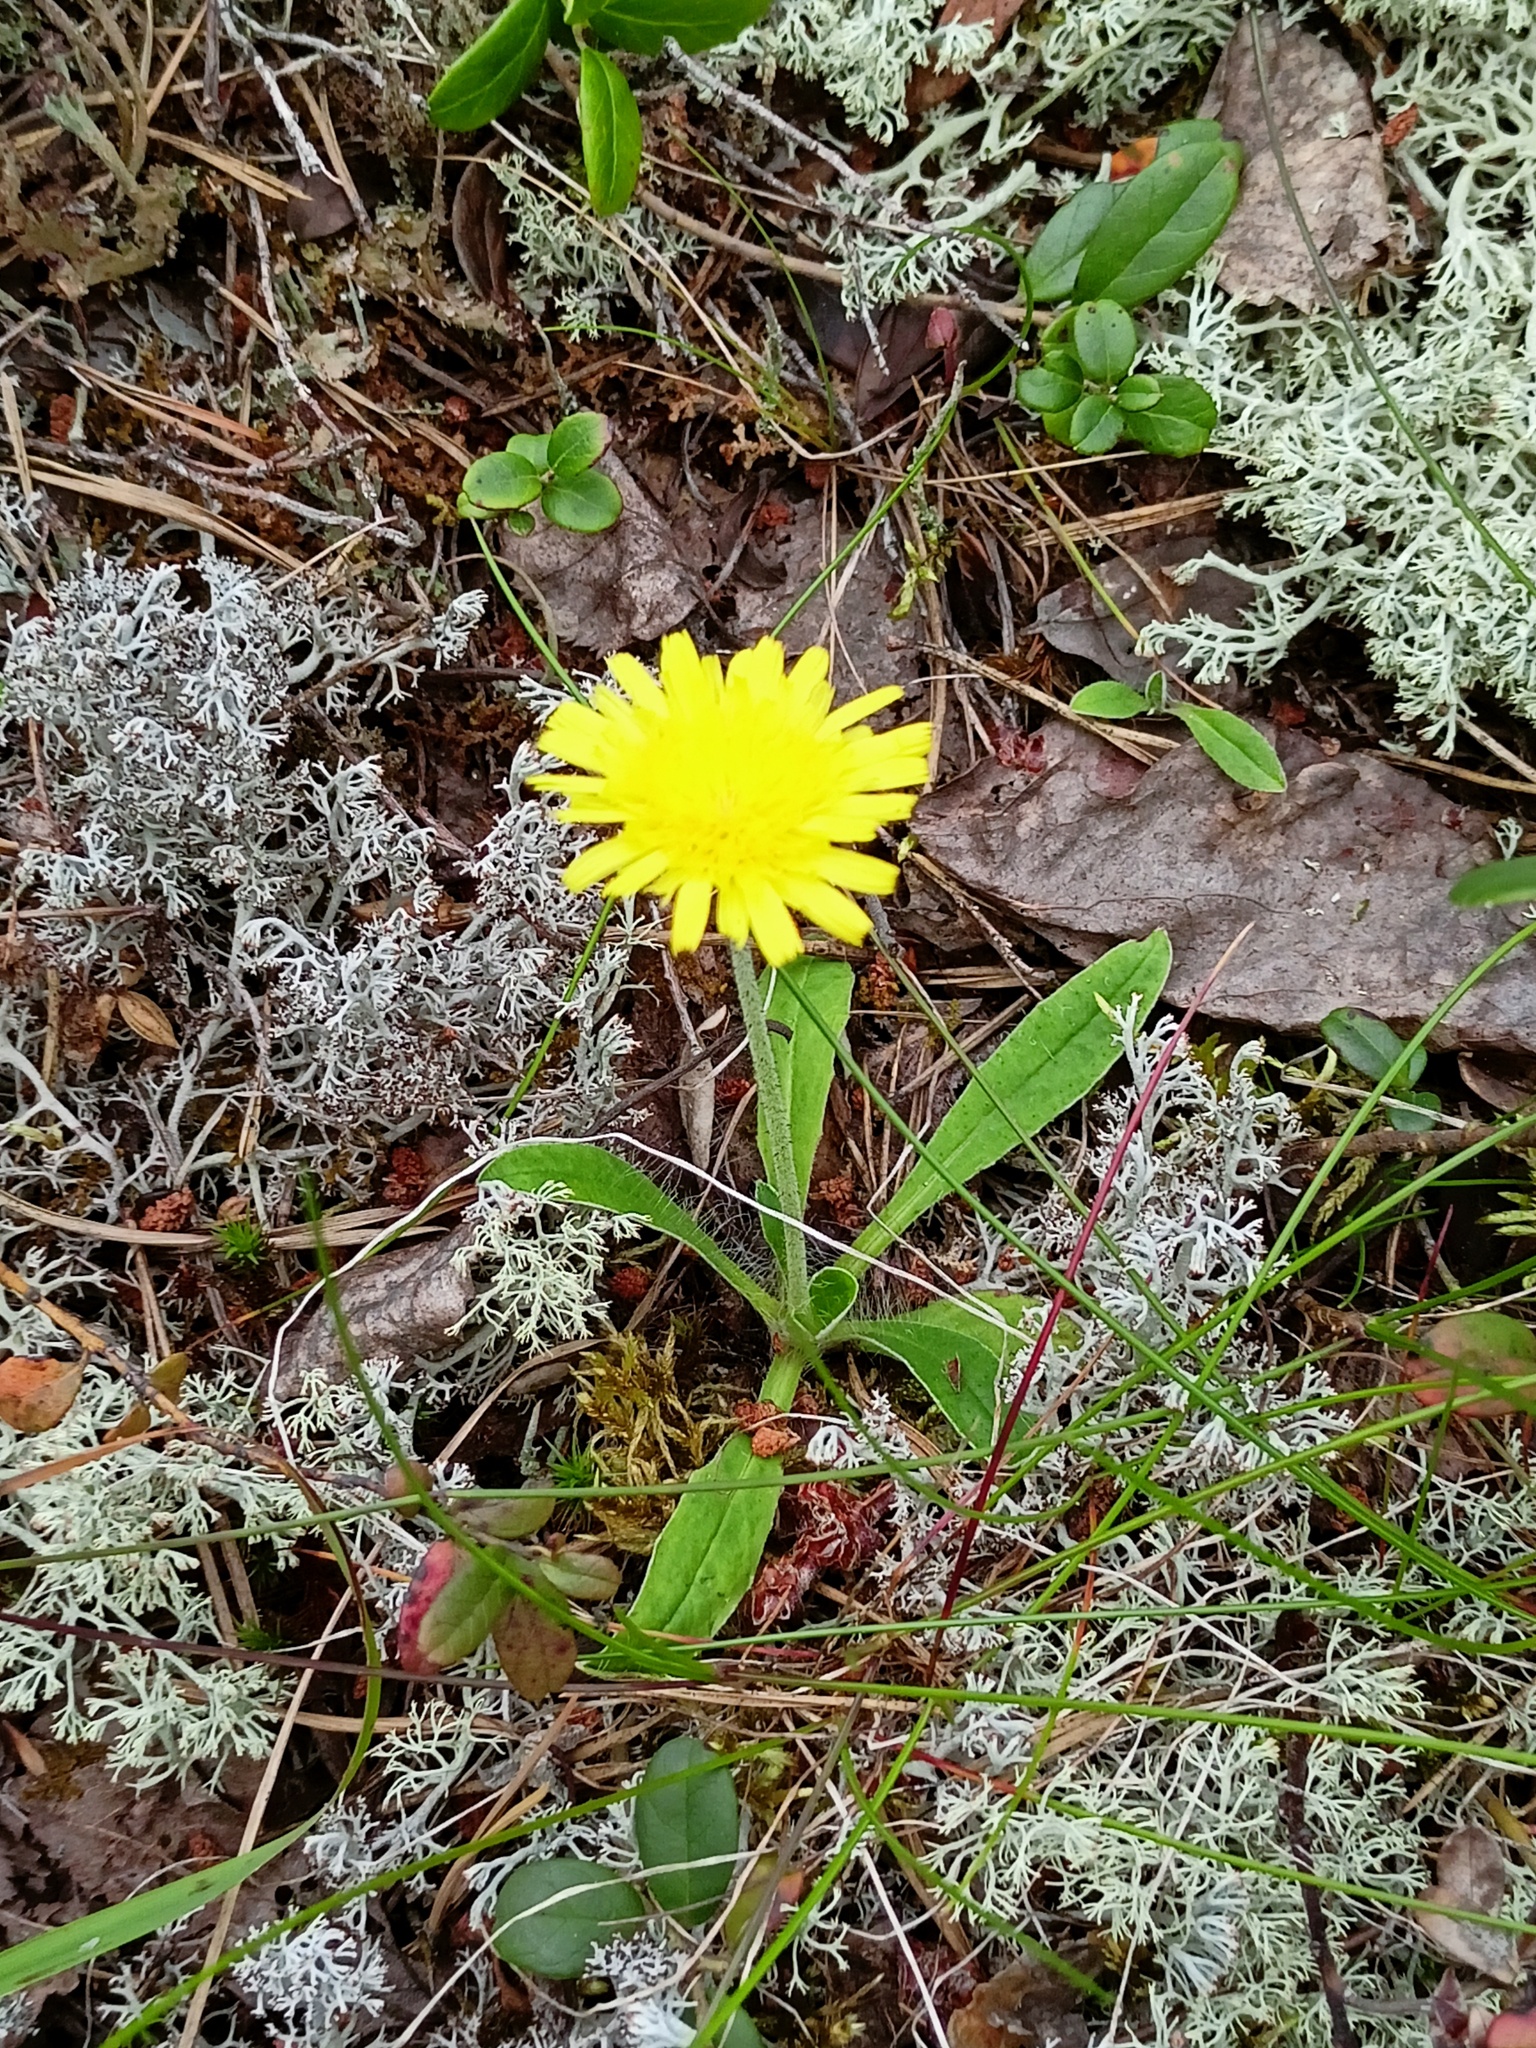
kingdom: Plantae
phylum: Tracheophyta
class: Magnoliopsida
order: Asterales
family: Asteraceae
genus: Pilosella
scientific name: Pilosella officinarum
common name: Mouse-ear hawkweed
